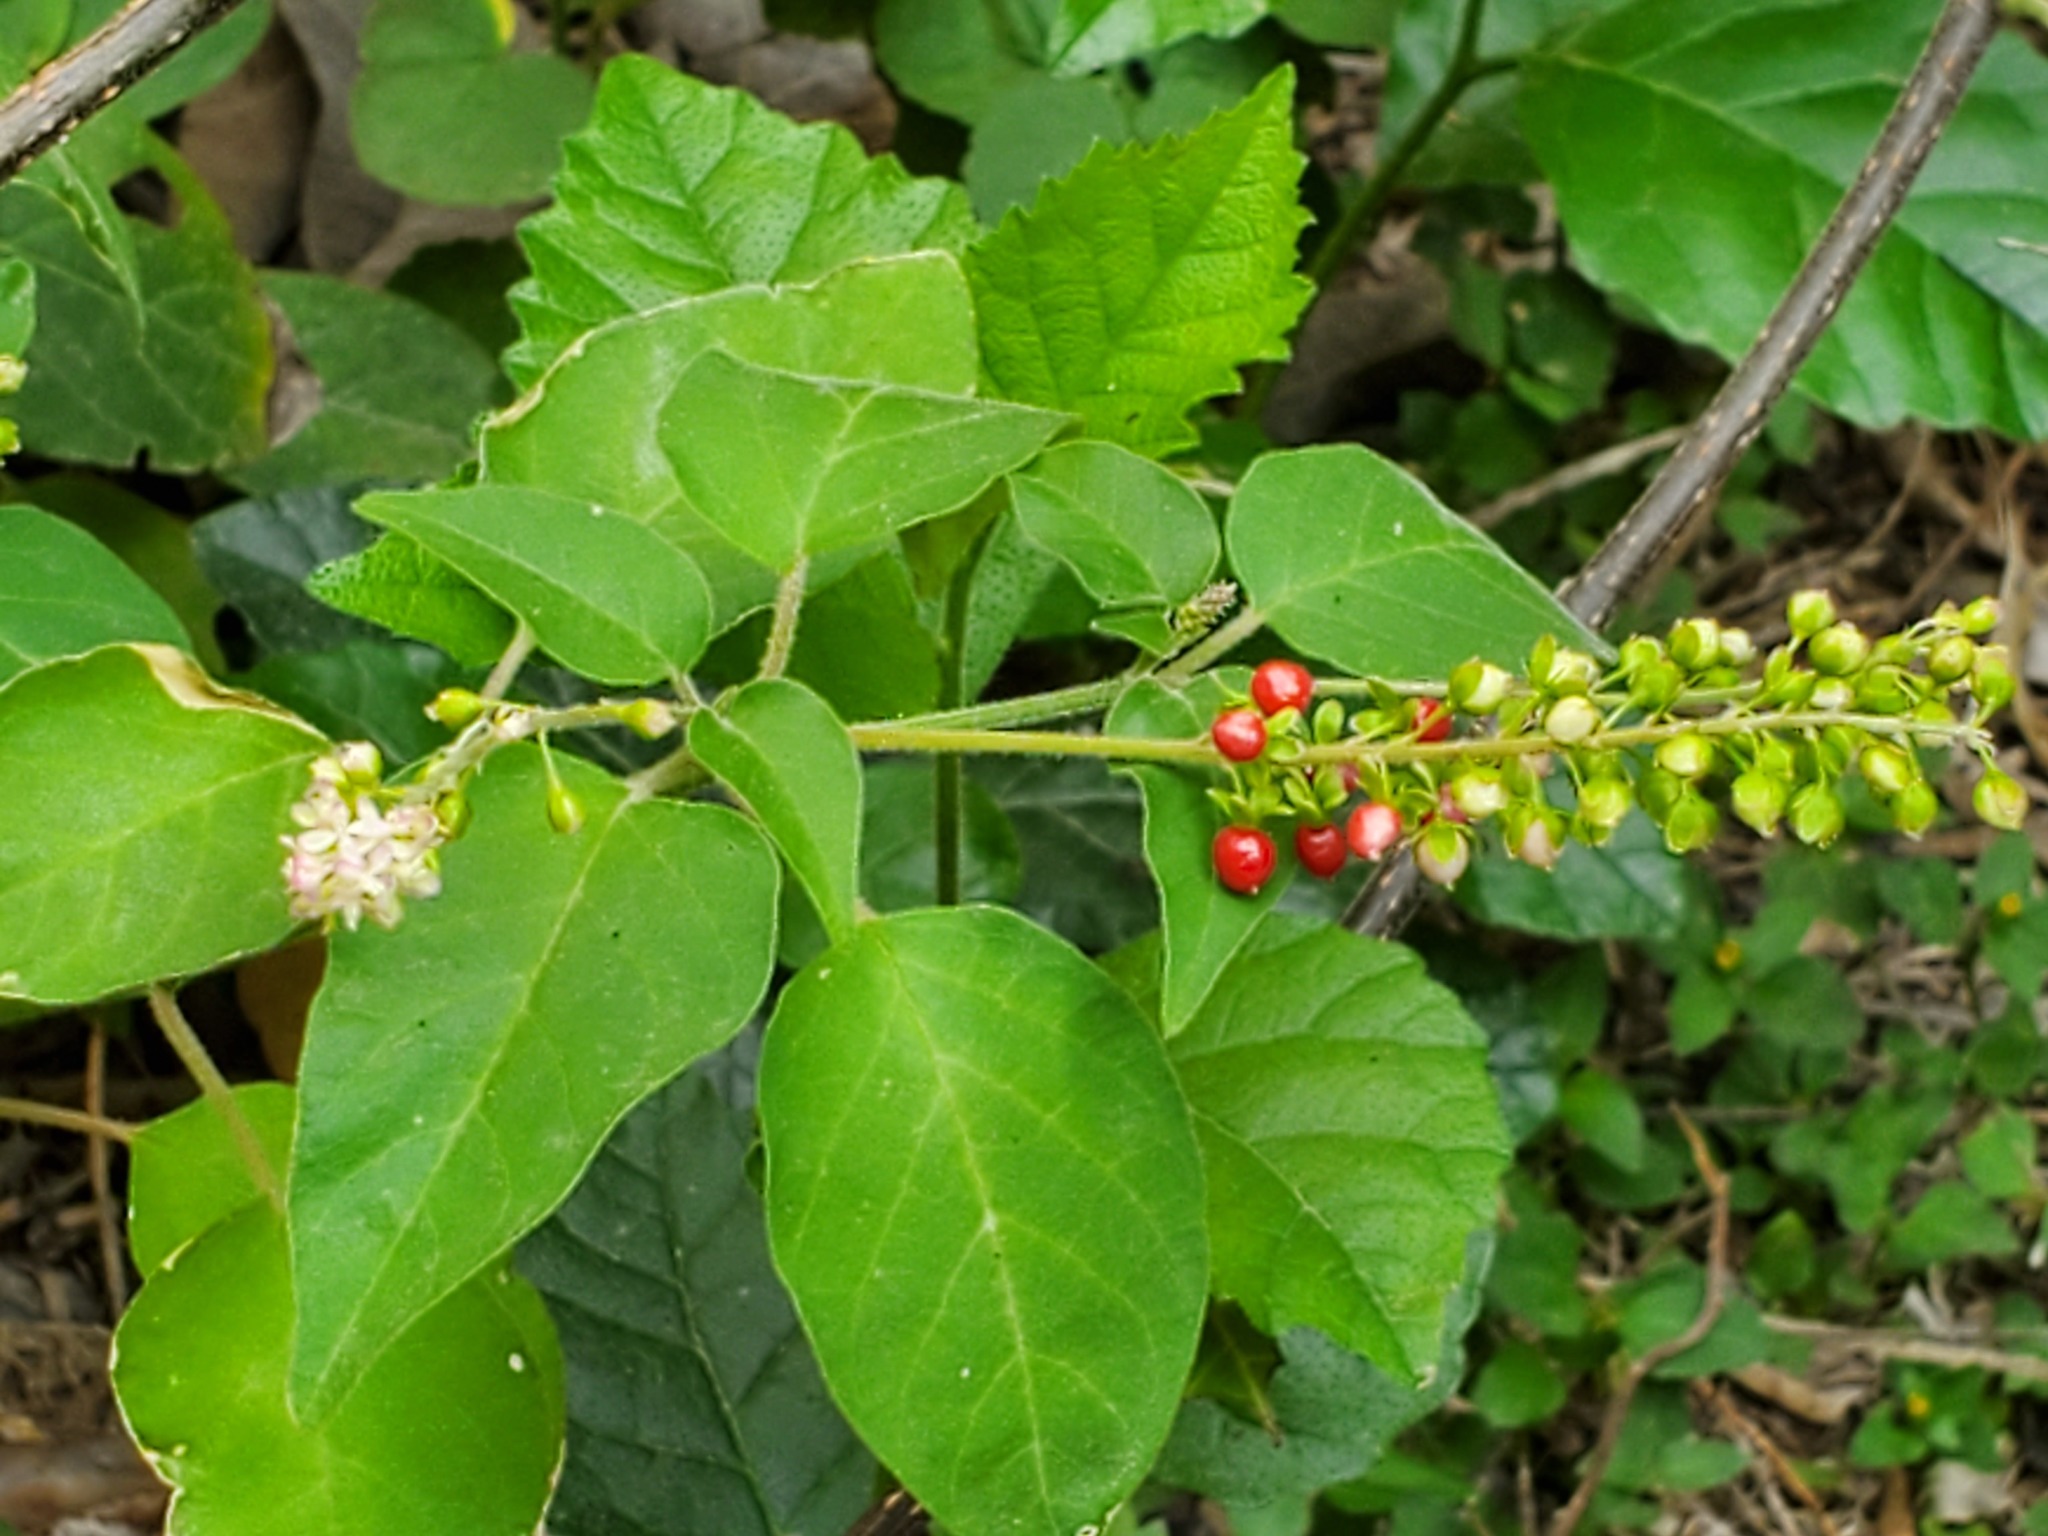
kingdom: Plantae
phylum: Tracheophyta
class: Magnoliopsida
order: Caryophyllales
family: Phytolaccaceae
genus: Rivina
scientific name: Rivina humilis
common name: Rougeplant
